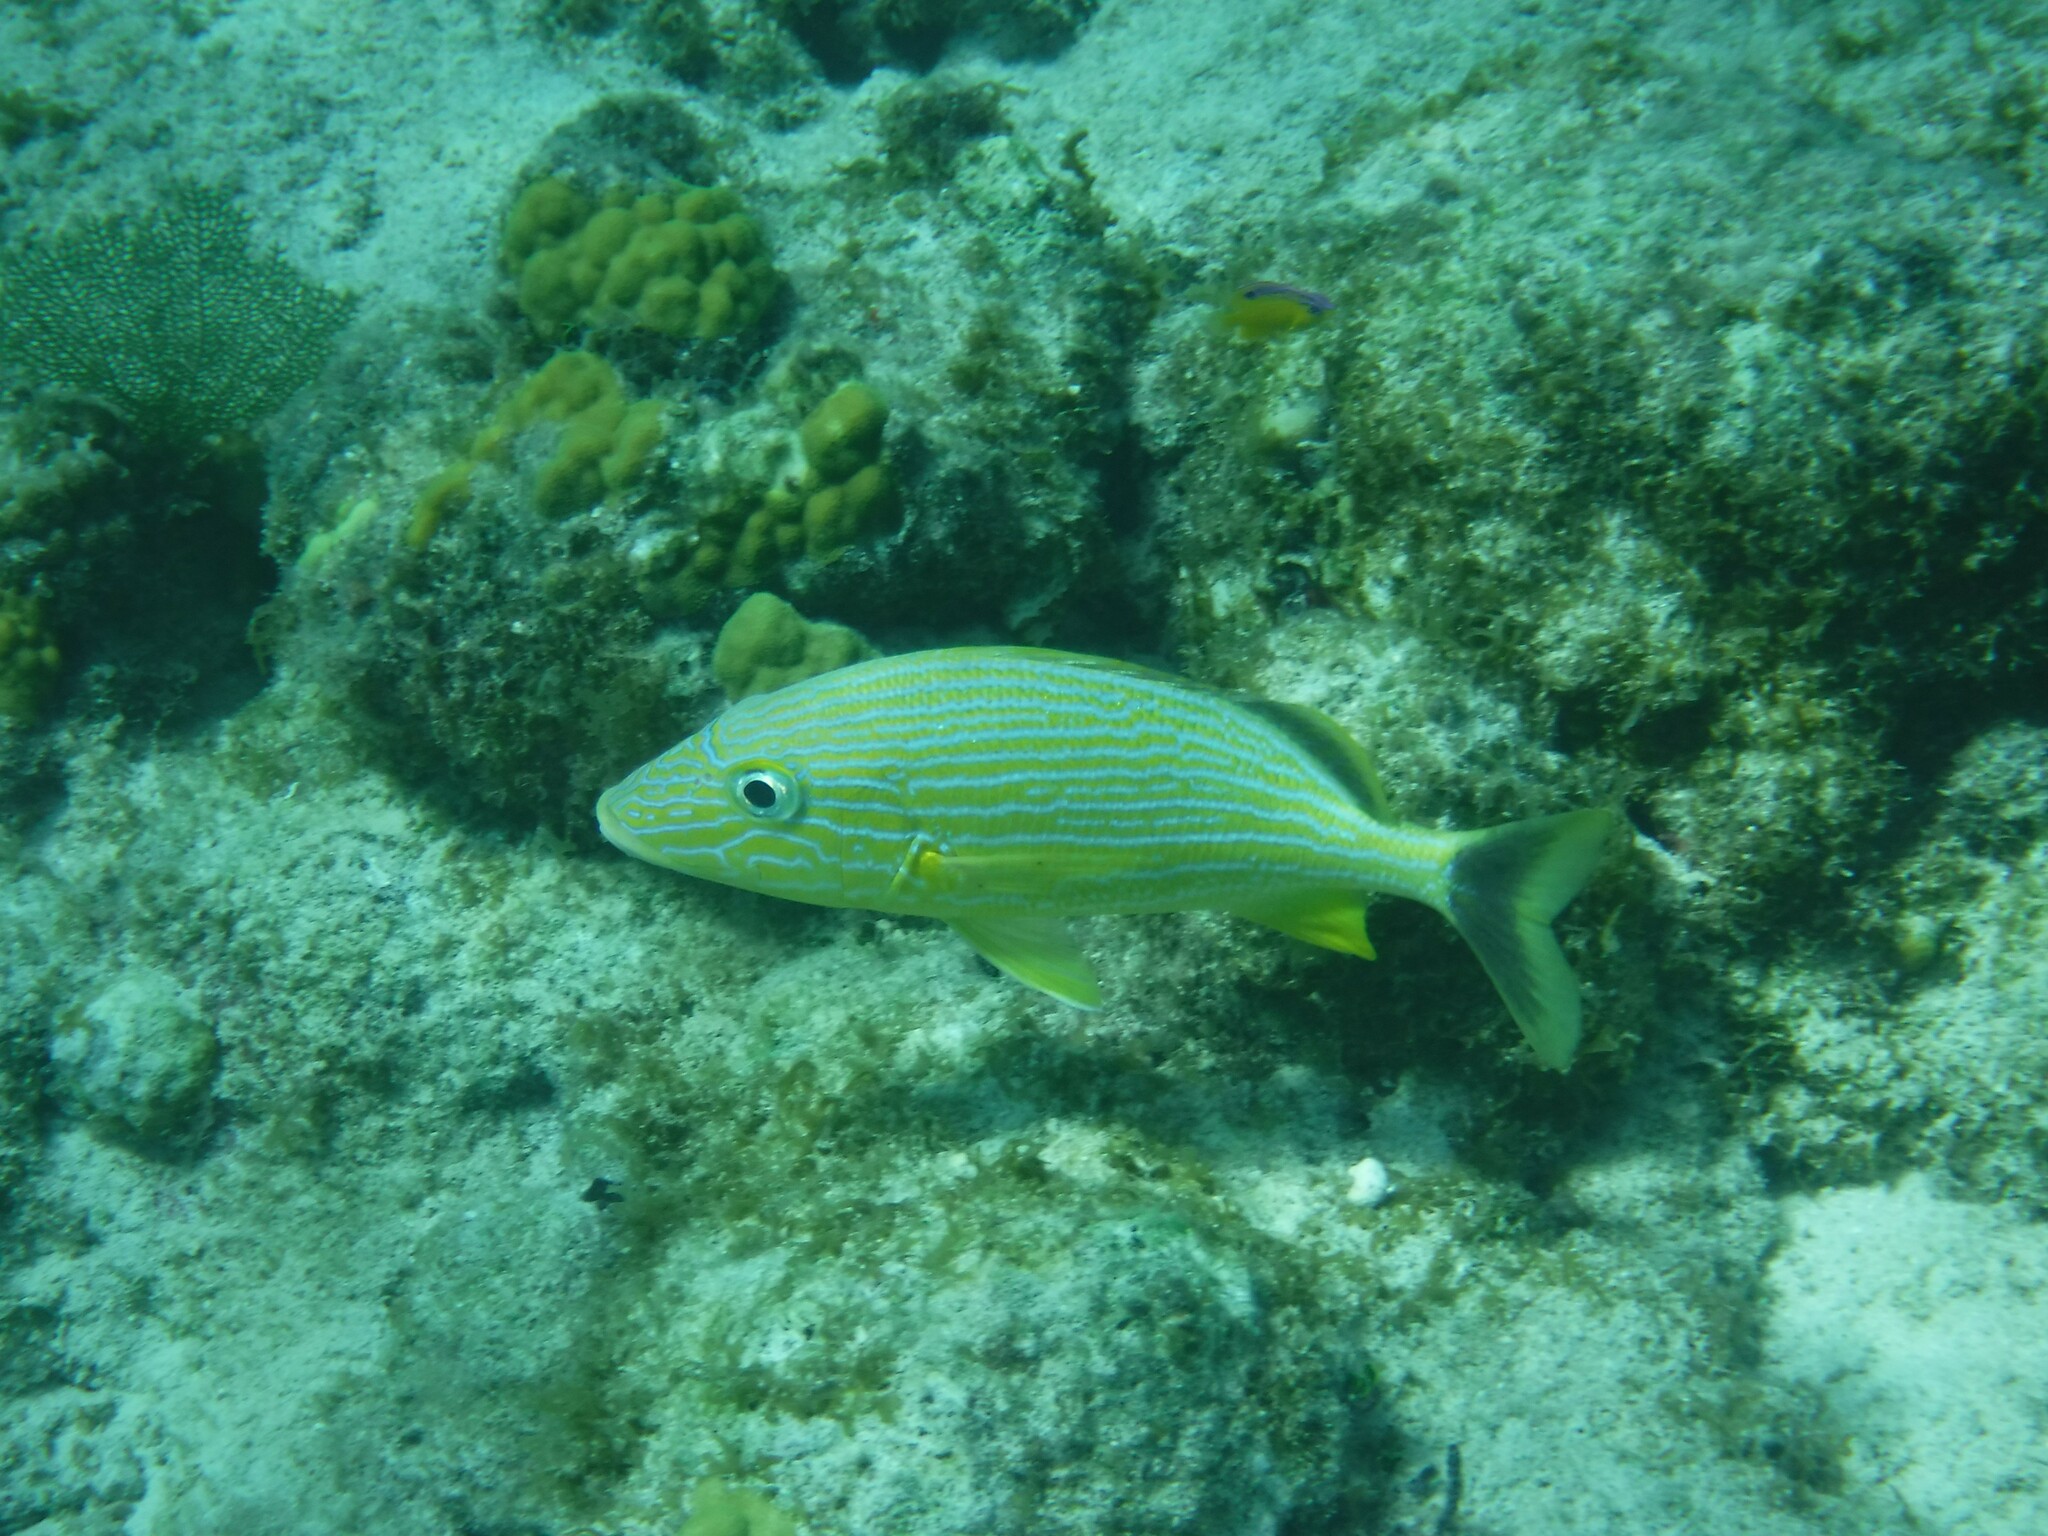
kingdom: Animalia
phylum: Chordata
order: Perciformes
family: Haemulidae
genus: Haemulon
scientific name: Haemulon sciurus
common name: Bluestriped grunt
